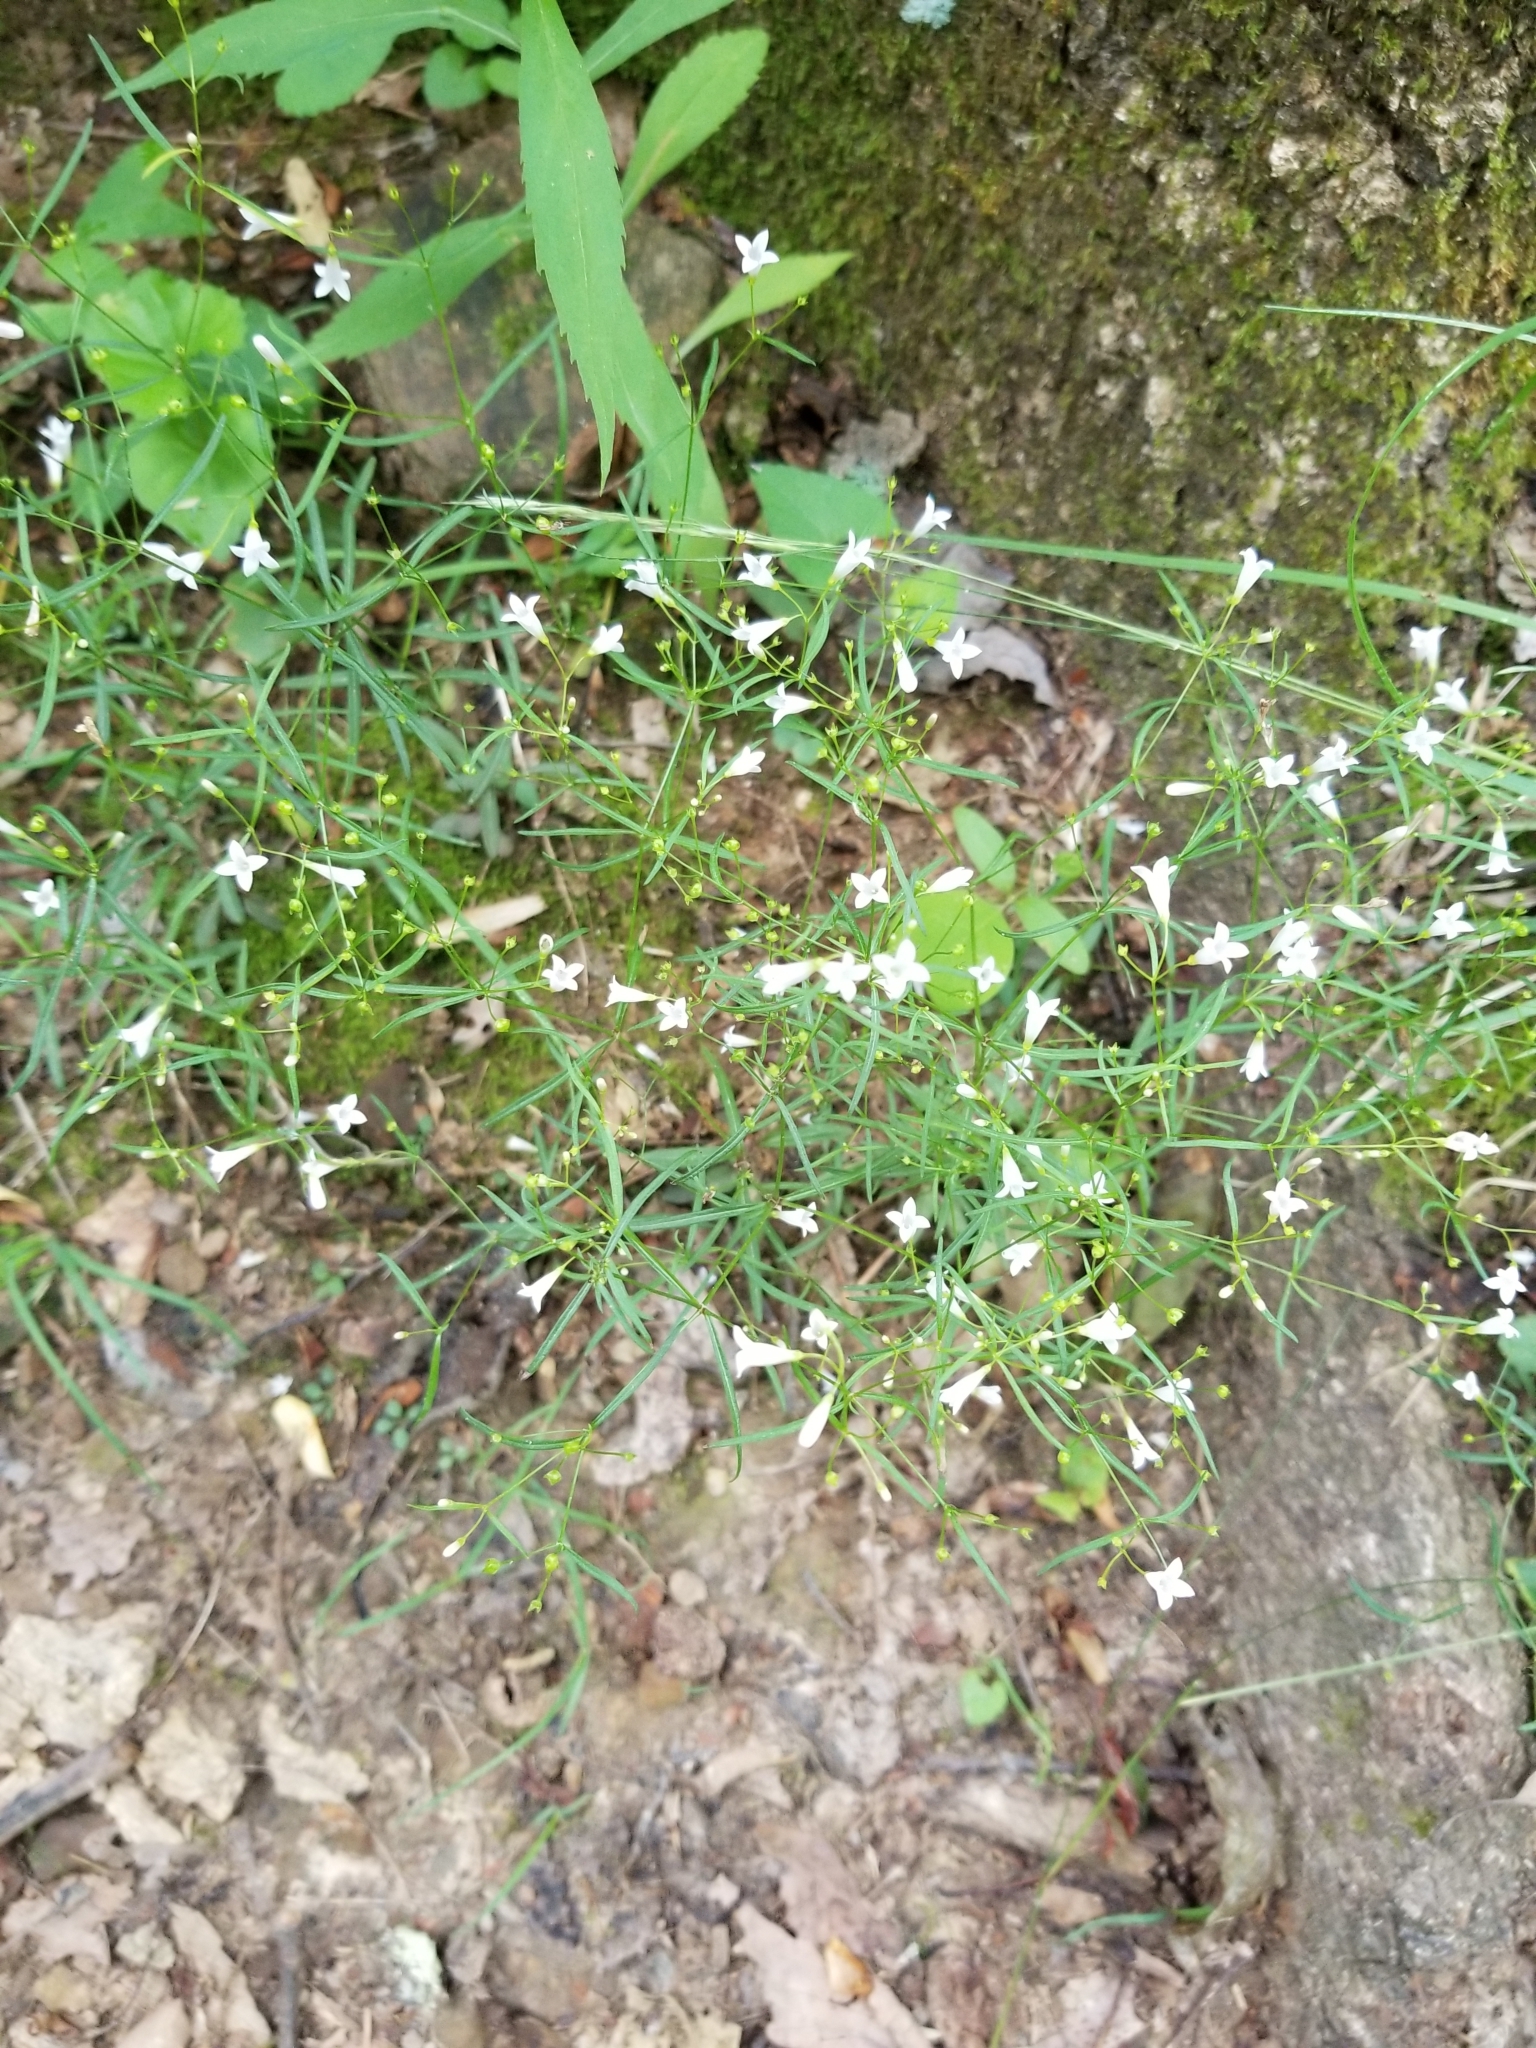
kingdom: Plantae
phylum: Tracheophyta
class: Magnoliopsida
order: Gentianales
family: Rubiaceae
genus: Houstonia
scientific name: Houstonia longifolia
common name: Long-leaved bluets
